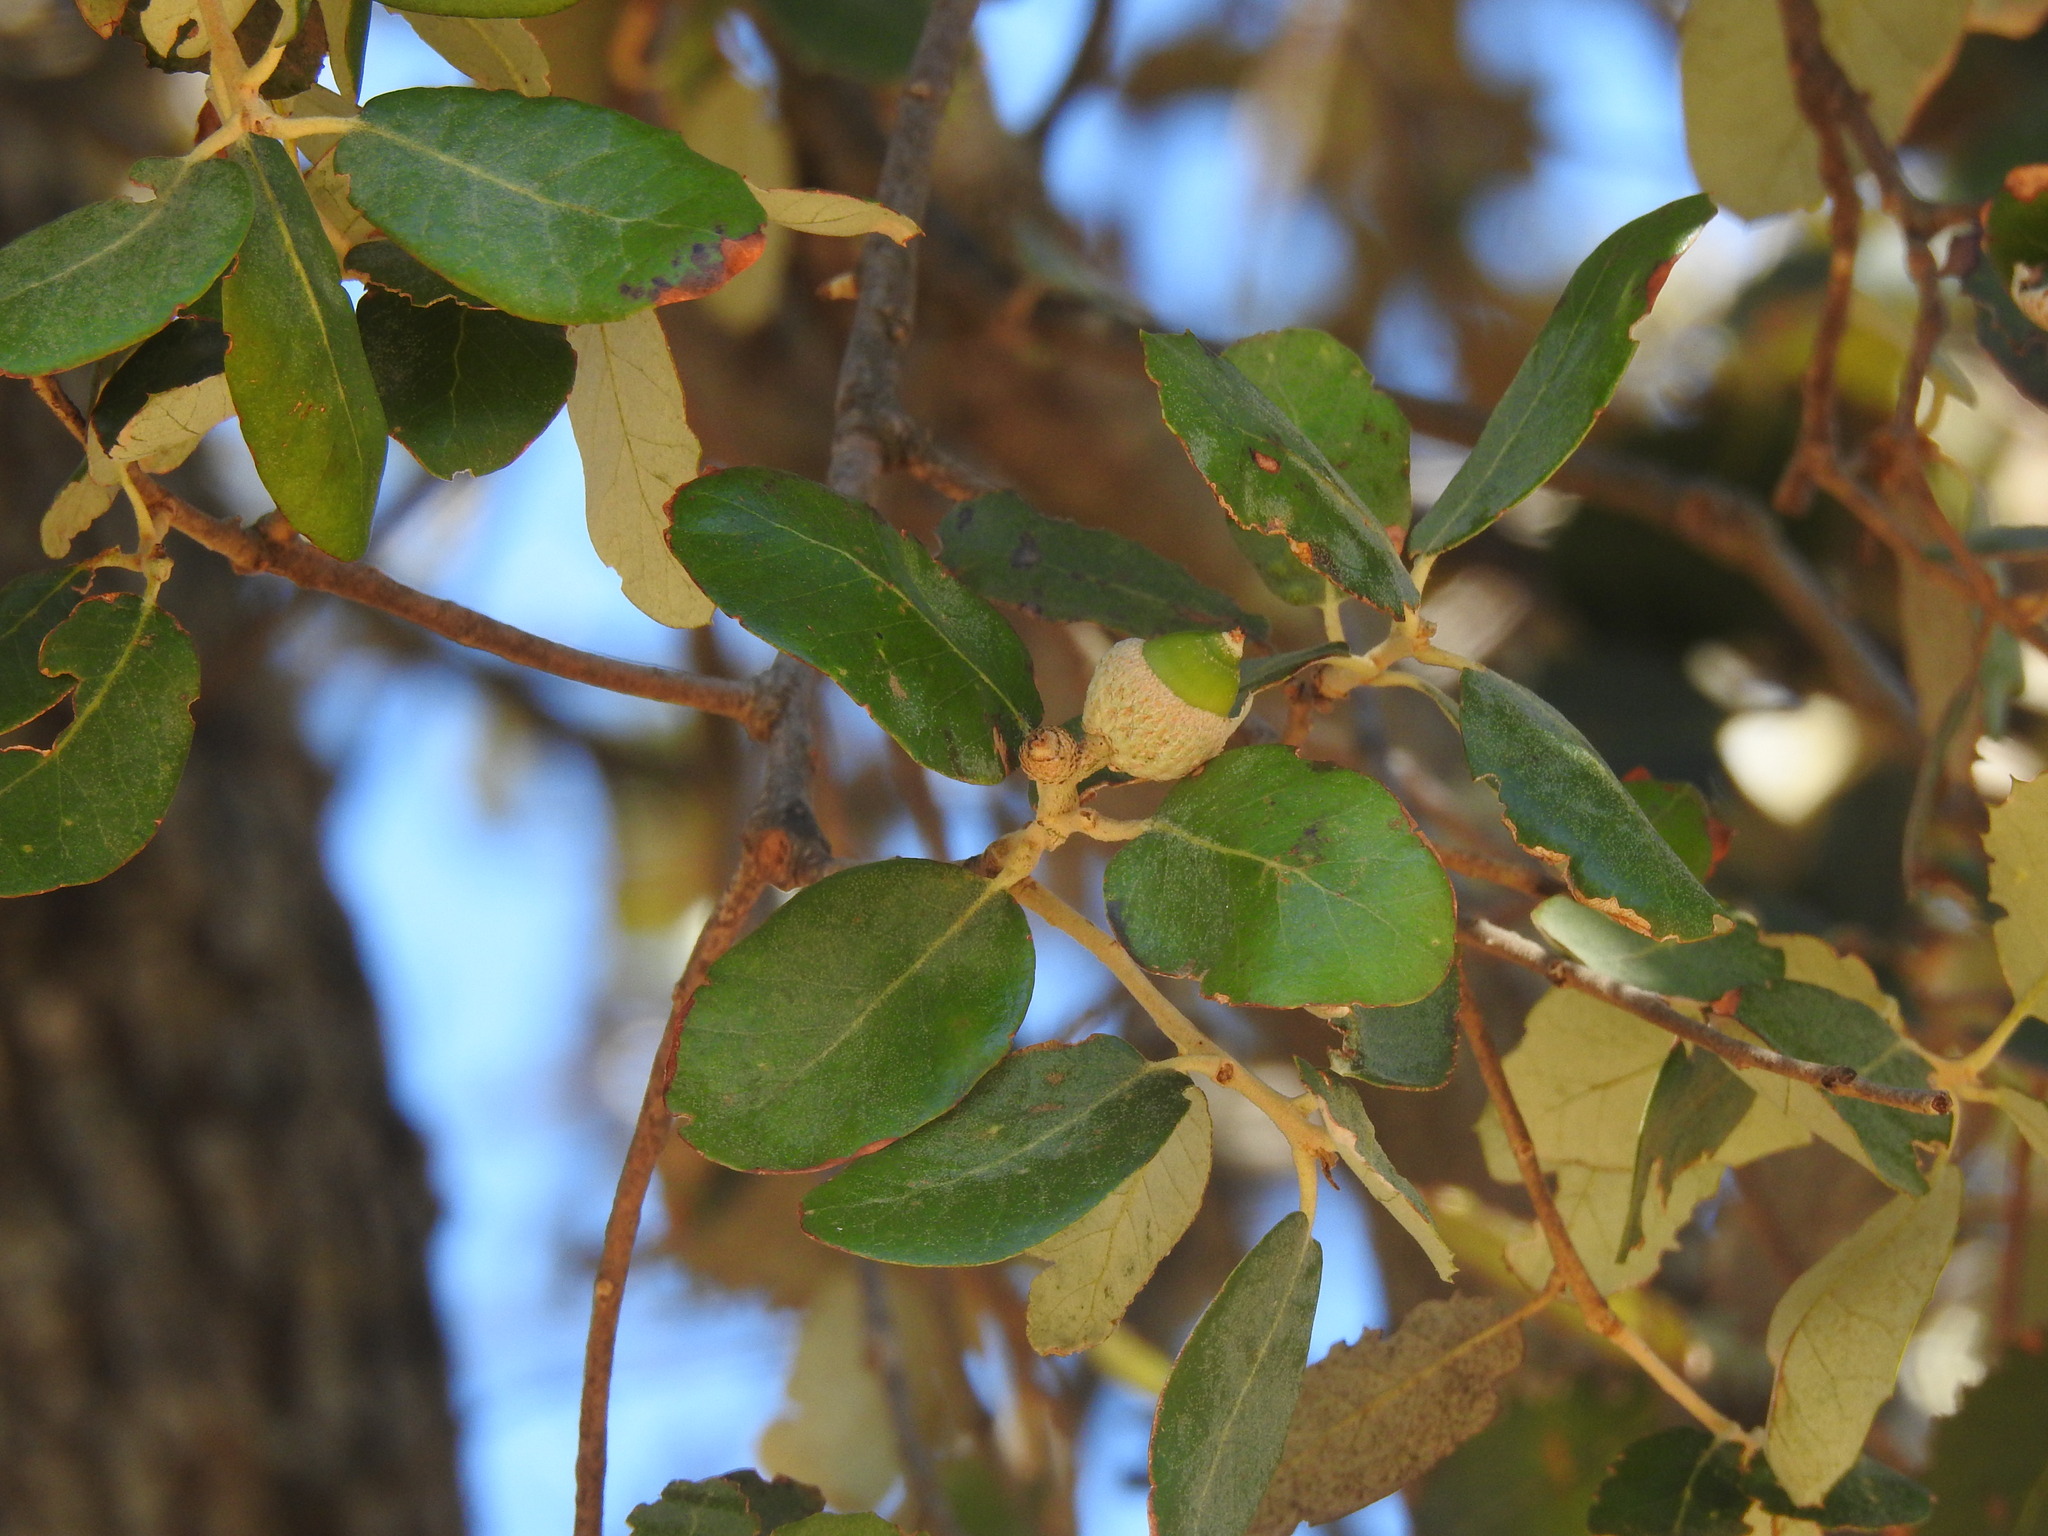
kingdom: Plantae
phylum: Tracheophyta
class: Magnoliopsida
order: Fagales
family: Fagaceae
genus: Quercus
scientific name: Quercus rotundifolia
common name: Holm oak
